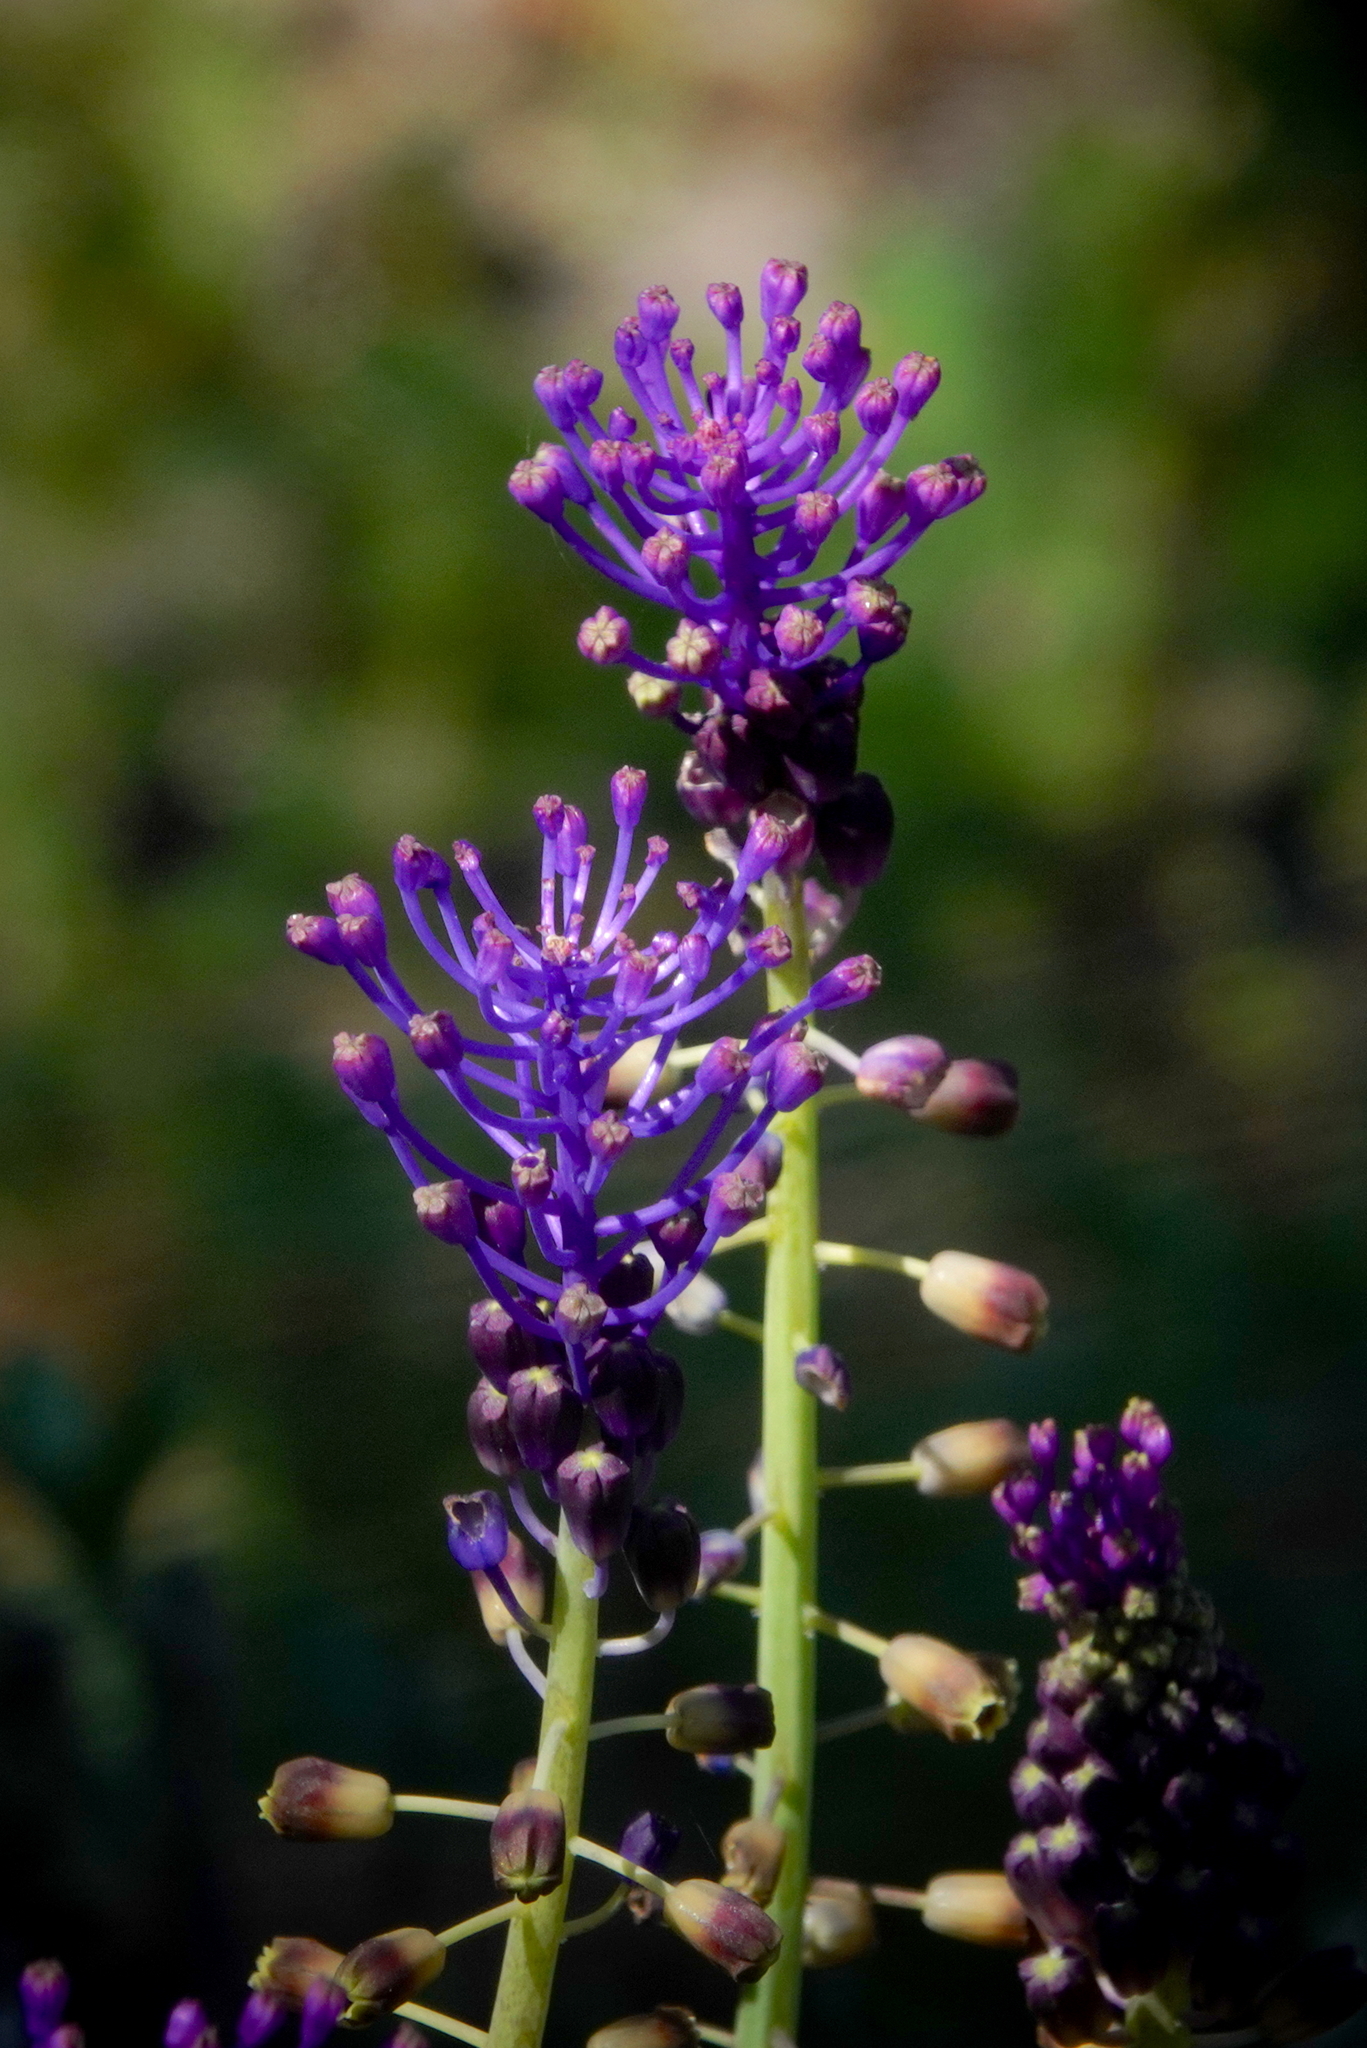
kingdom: Plantae
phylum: Tracheophyta
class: Liliopsida
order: Asparagales
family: Asparagaceae
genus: Muscari
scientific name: Muscari comosum
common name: Tassel hyacinth
